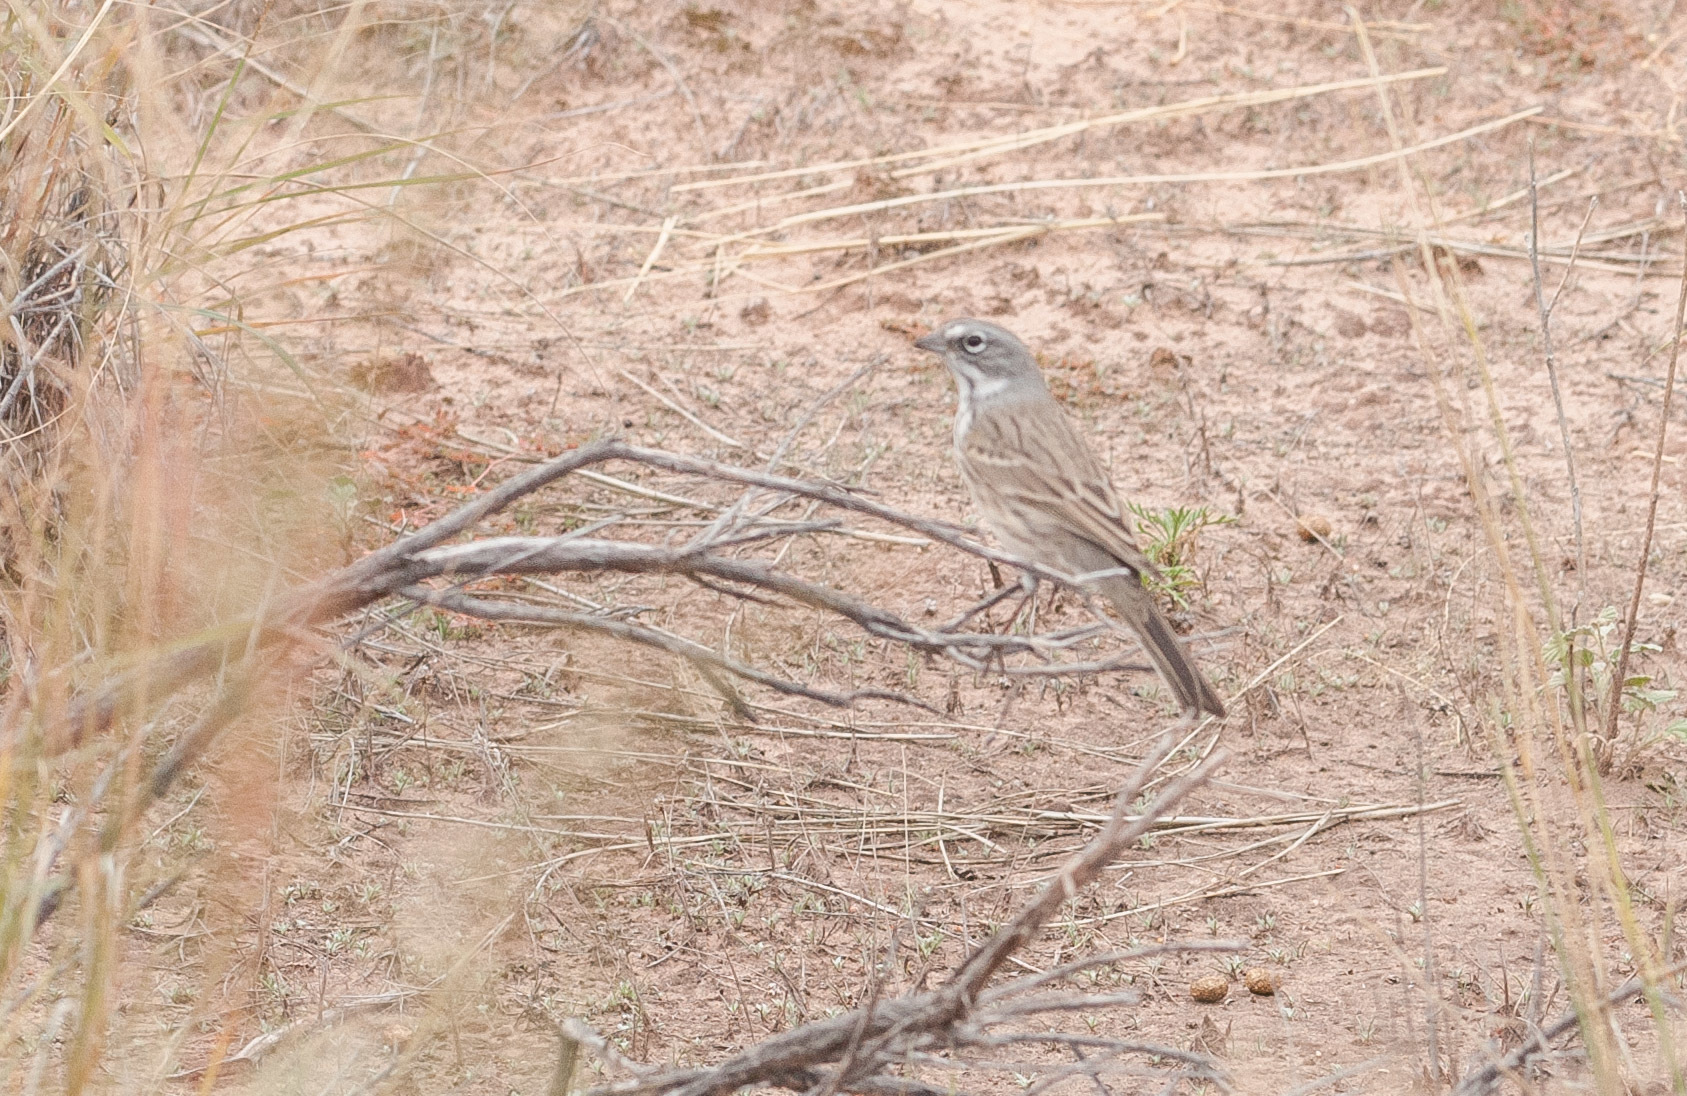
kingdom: Animalia
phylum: Chordata
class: Aves
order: Passeriformes
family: Passerellidae
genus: Artemisiospiza
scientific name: Artemisiospiza nevadensis
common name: Sagebrush sparrow
